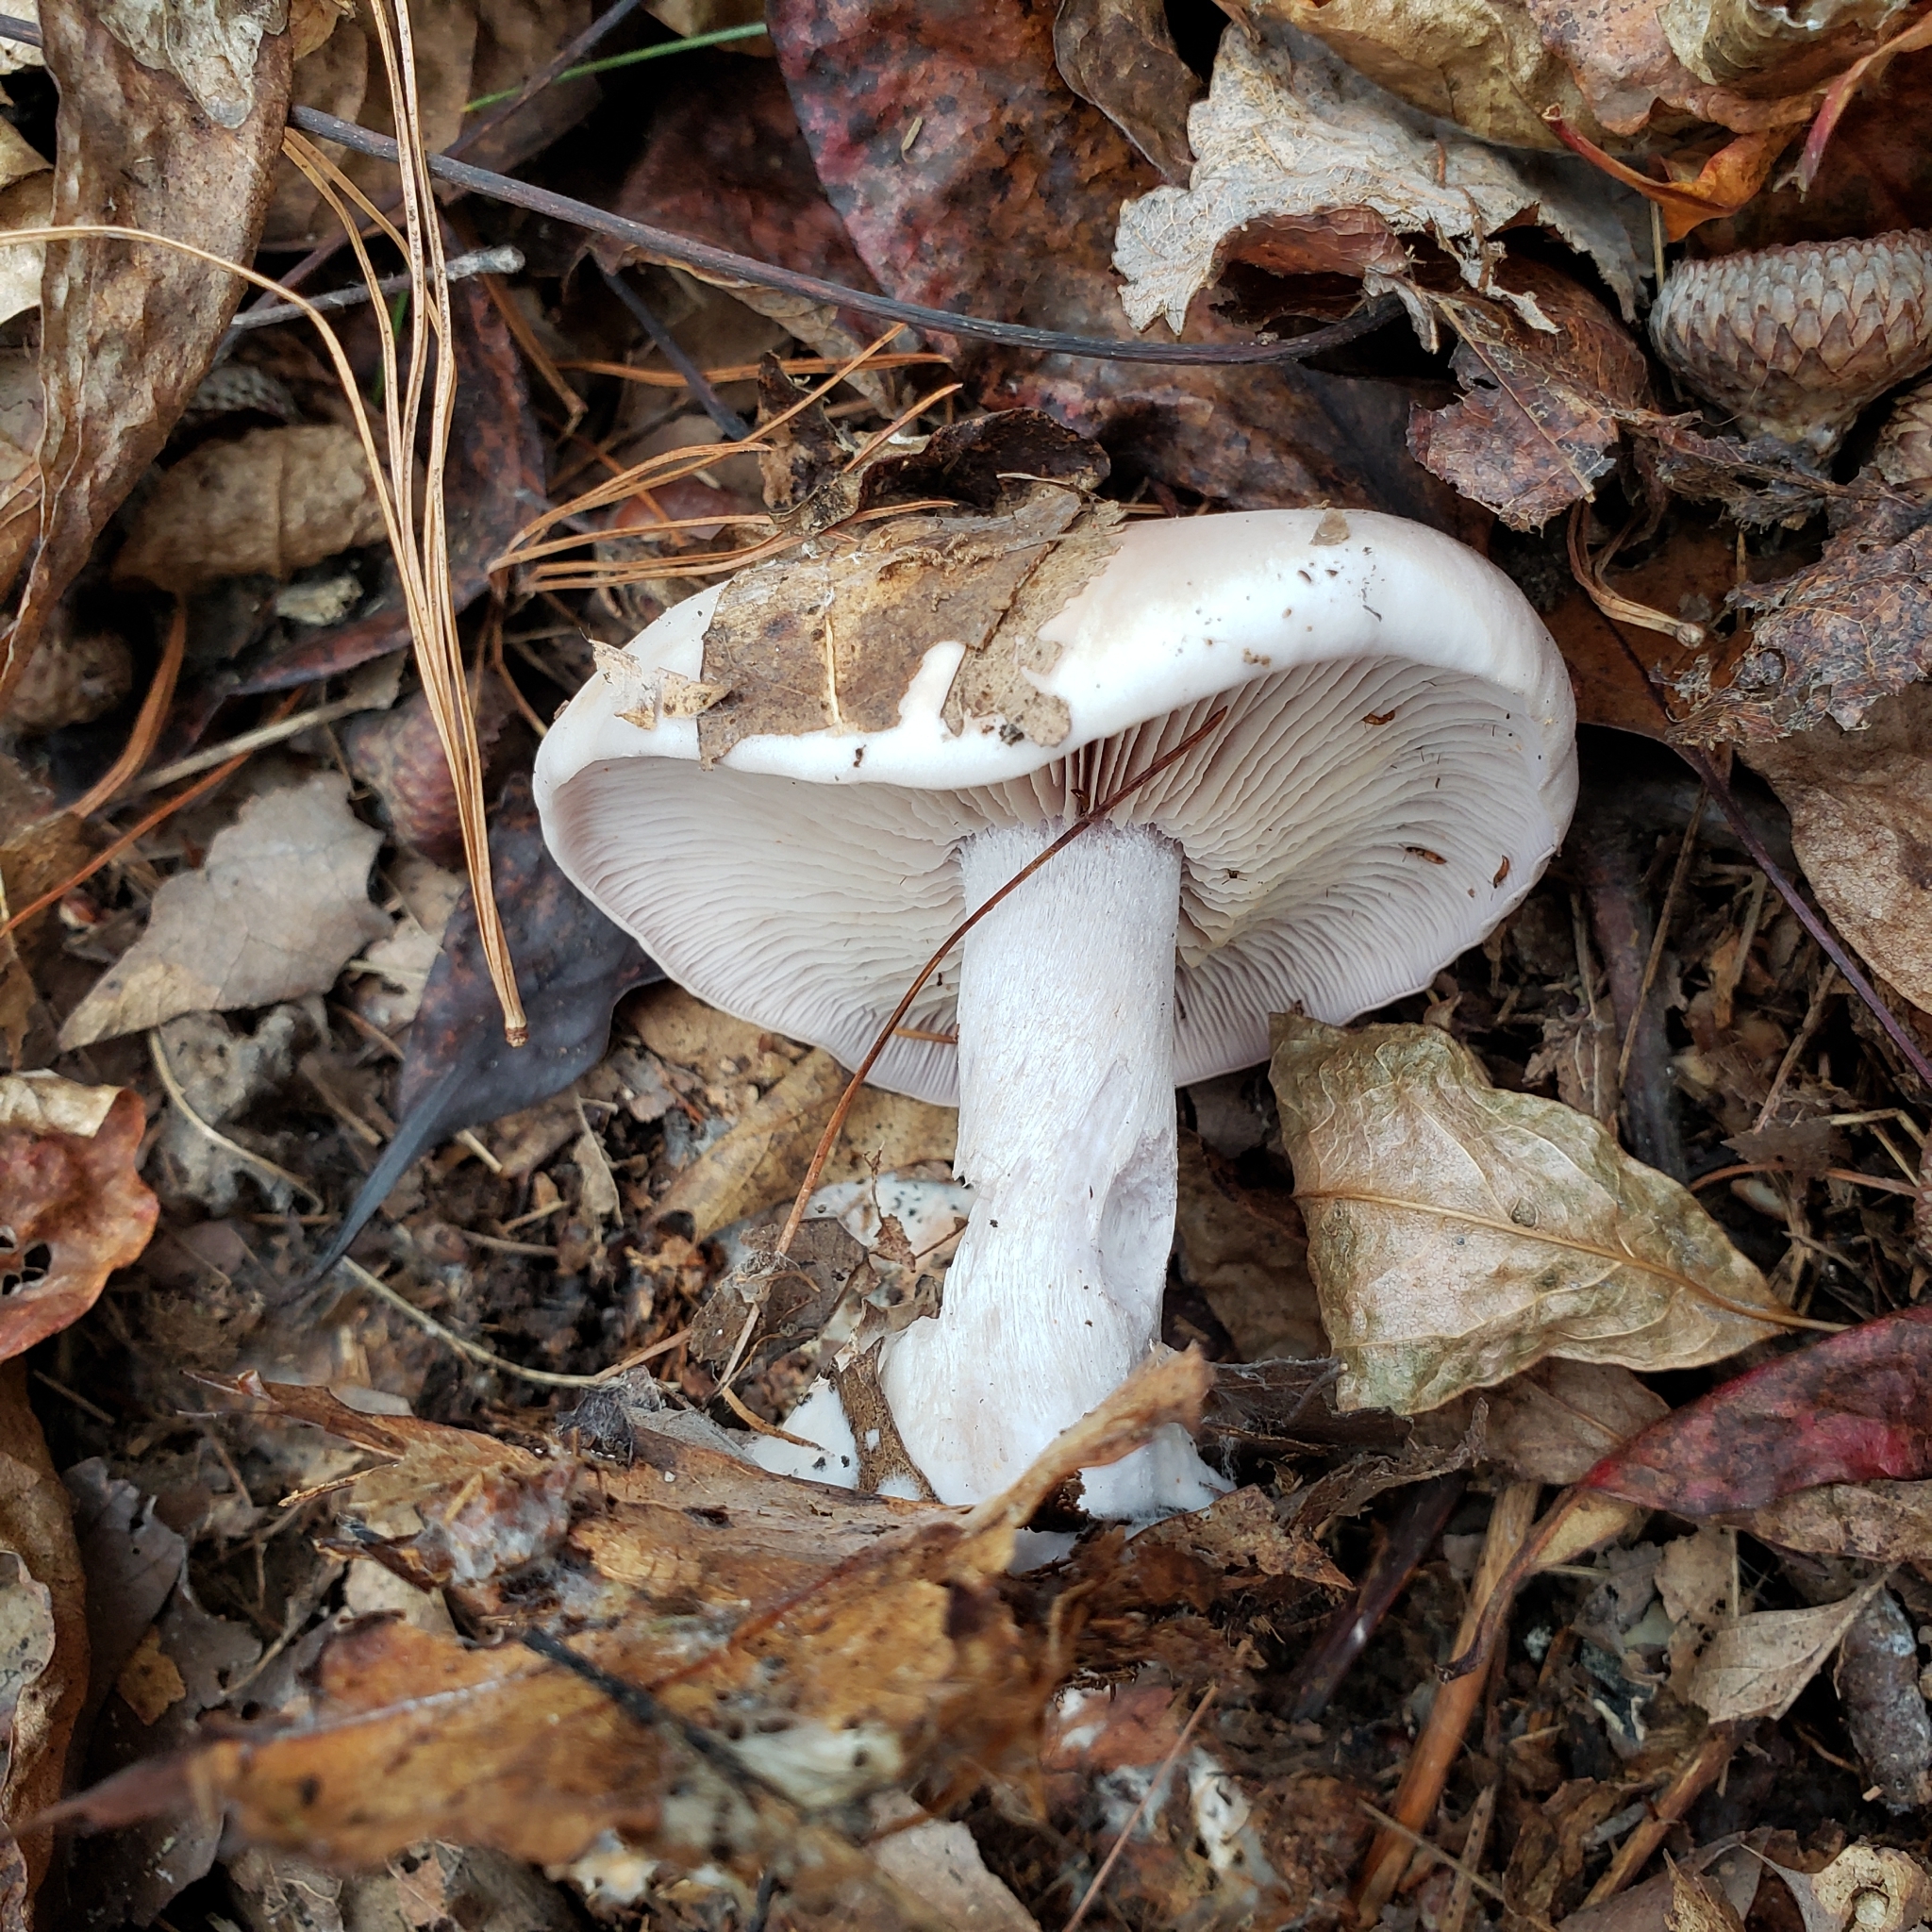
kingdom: Fungi
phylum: Basidiomycota
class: Agaricomycetes
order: Agaricales
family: Tricholomataceae
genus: Collybia
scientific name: Collybia
